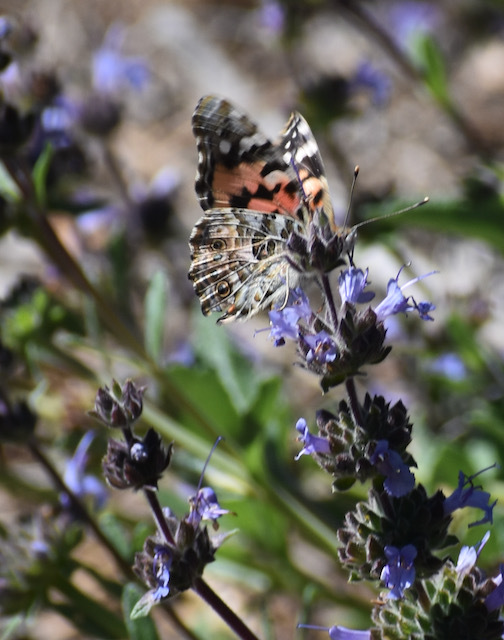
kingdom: Animalia
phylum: Arthropoda
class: Insecta
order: Lepidoptera
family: Nymphalidae
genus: Vanessa
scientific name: Vanessa cardui
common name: Painted lady
